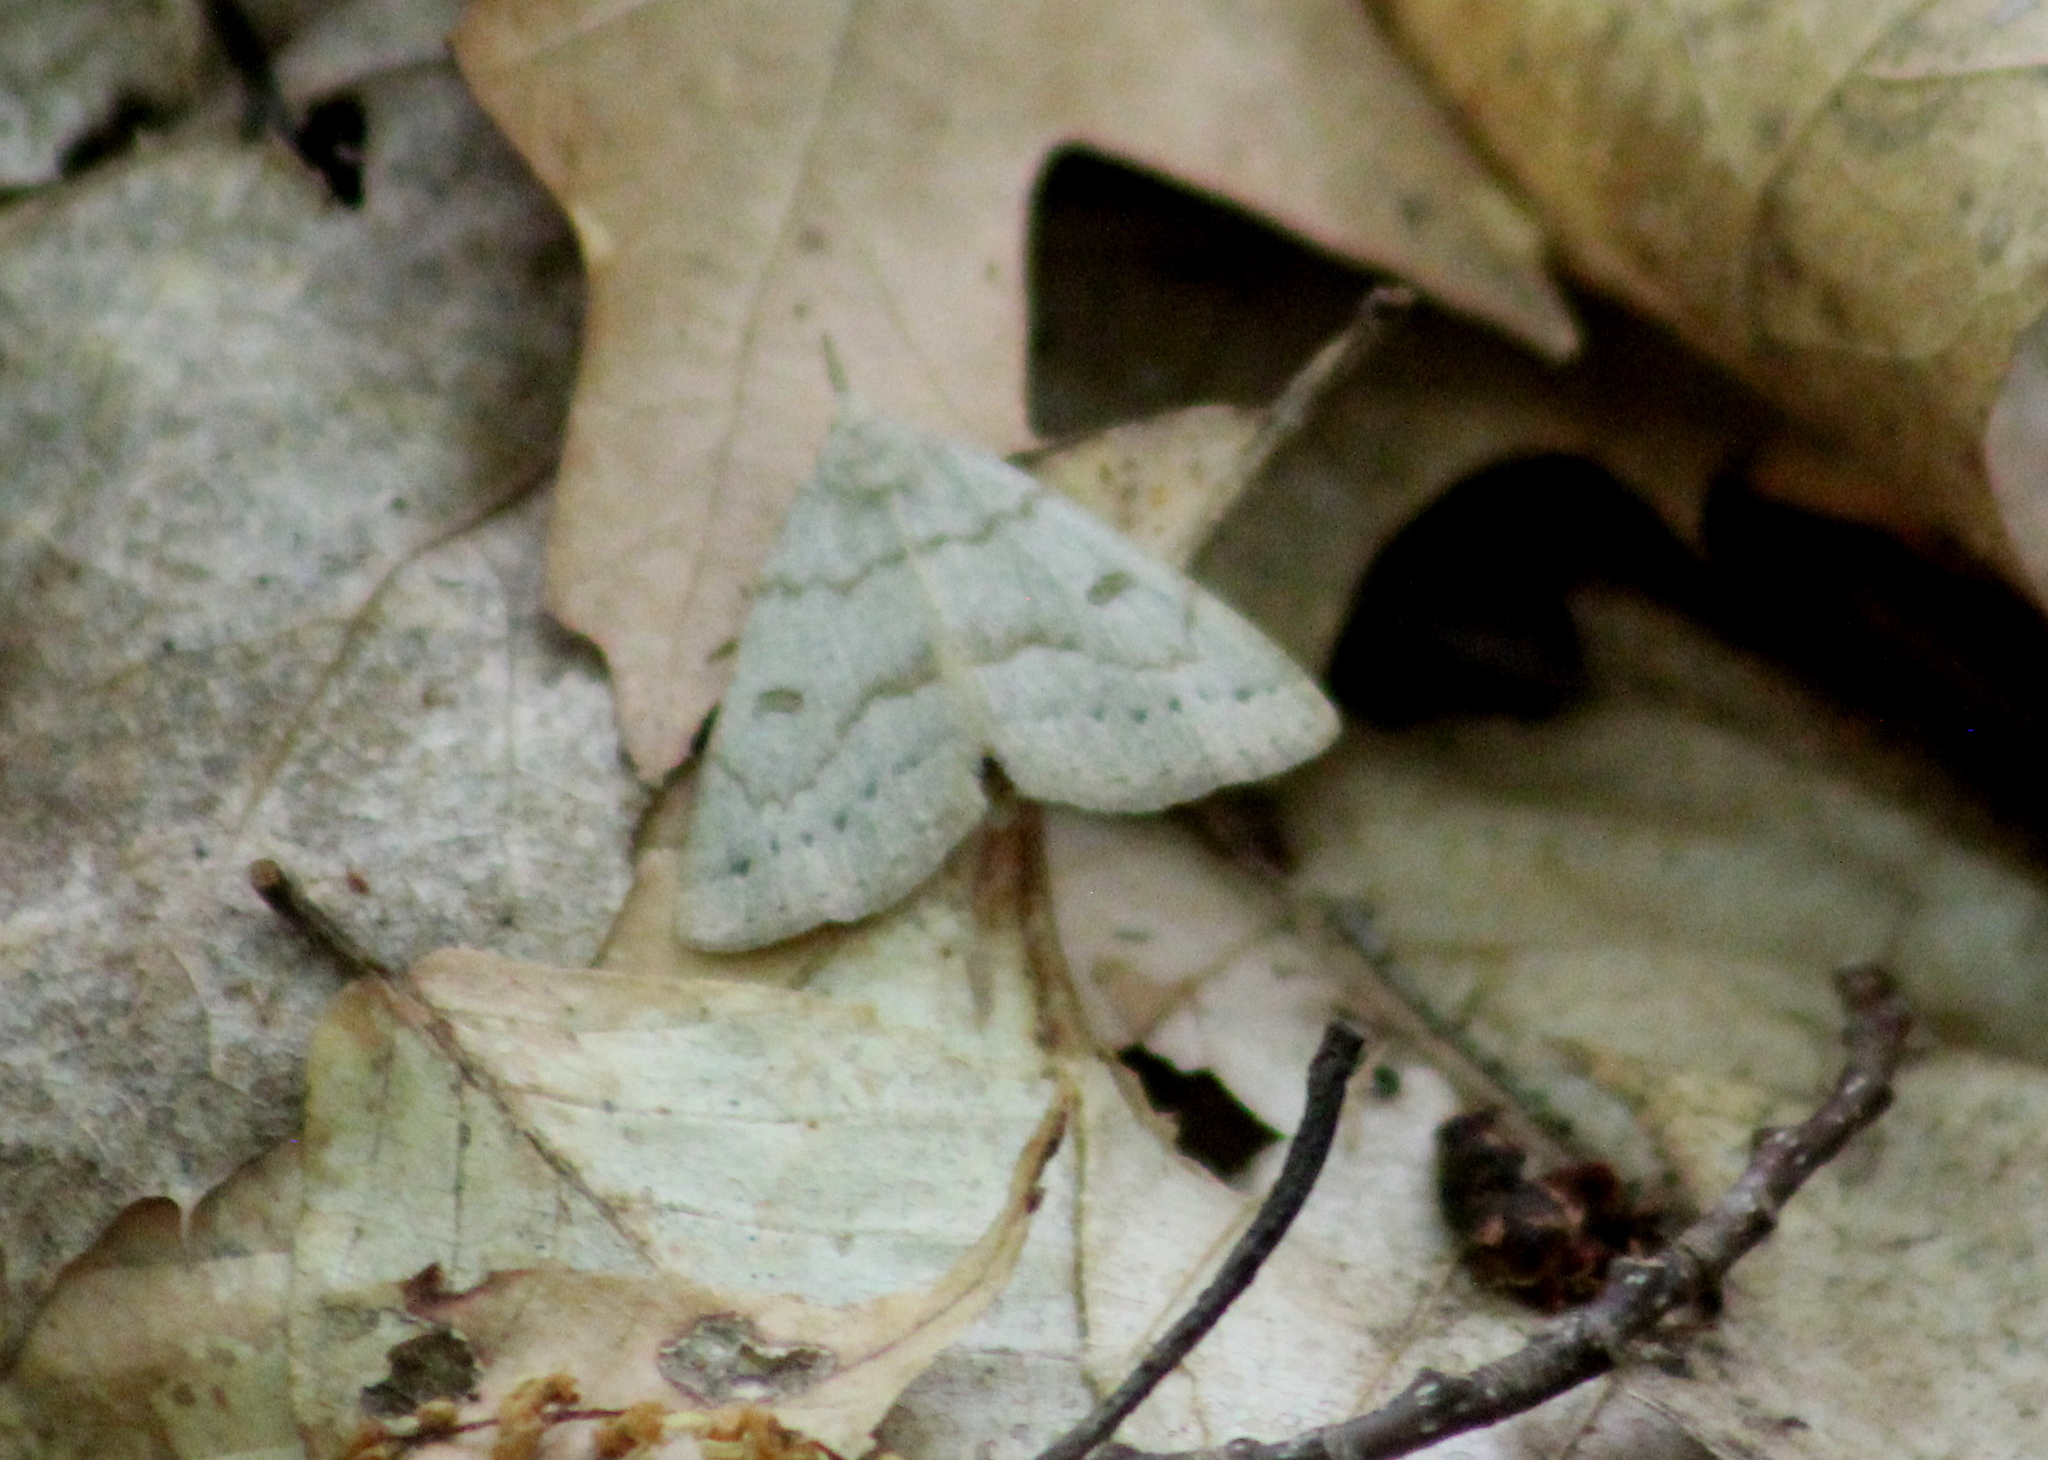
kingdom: Animalia
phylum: Arthropoda
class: Insecta
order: Lepidoptera
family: Erebidae
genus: Macrochilo
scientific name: Macrochilo morbidalis
